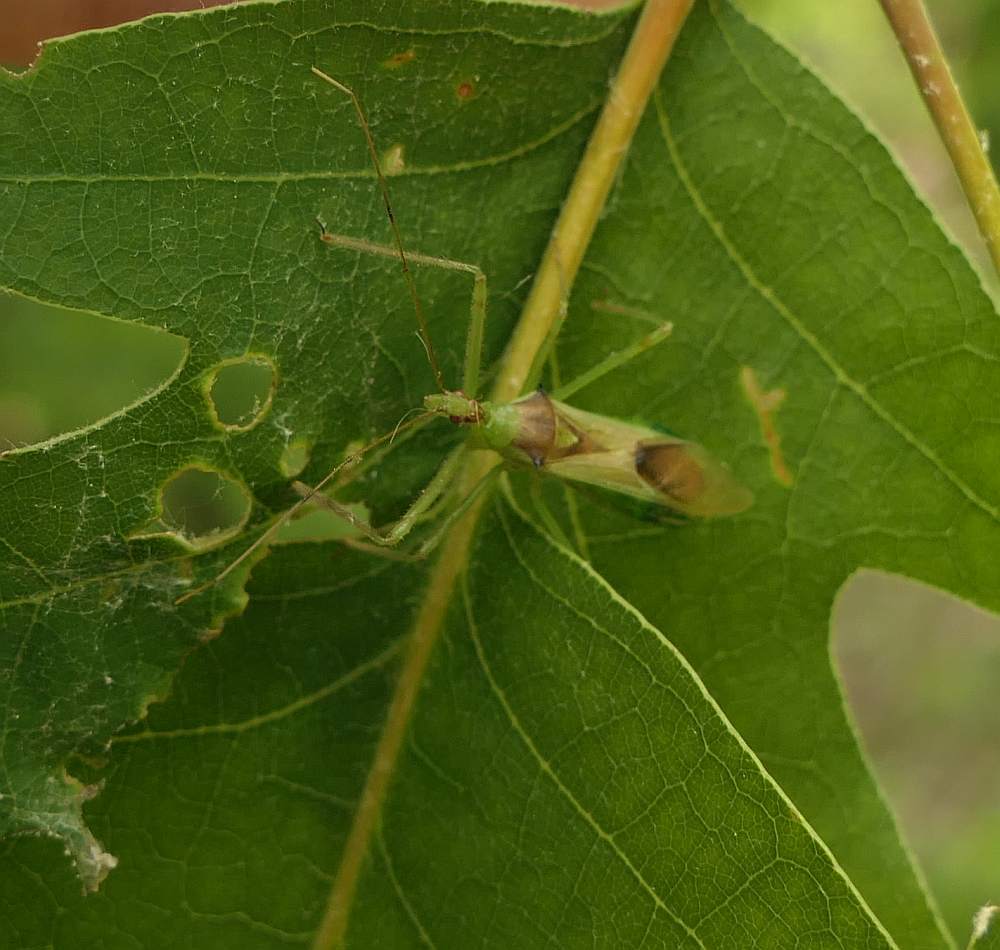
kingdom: Animalia
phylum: Arthropoda
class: Insecta
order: Hemiptera
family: Reduviidae
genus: Zelus
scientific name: Zelus luridus
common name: Pale green assassin bug
